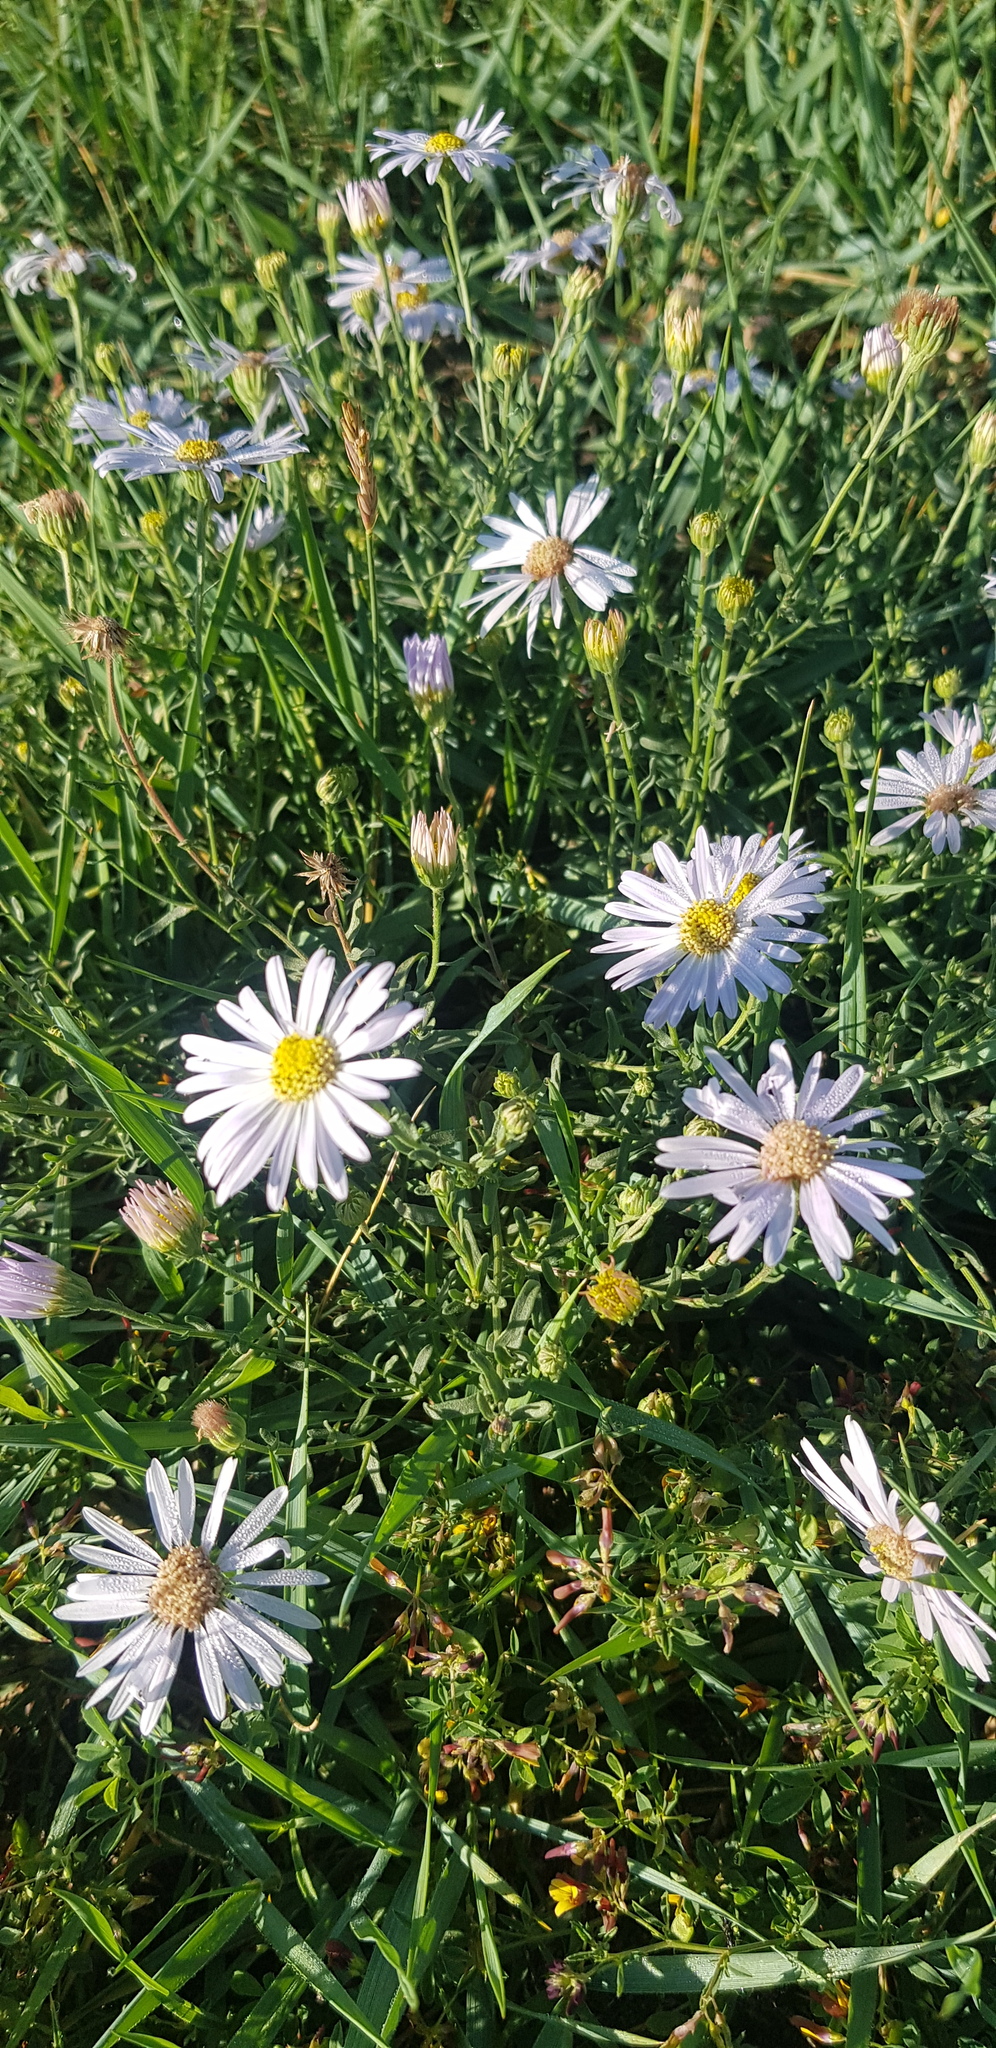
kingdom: Plantae
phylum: Tracheophyta
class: Magnoliopsida
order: Asterales
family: Asteraceae
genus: Heteropappus
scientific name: Heteropappus altaicus
